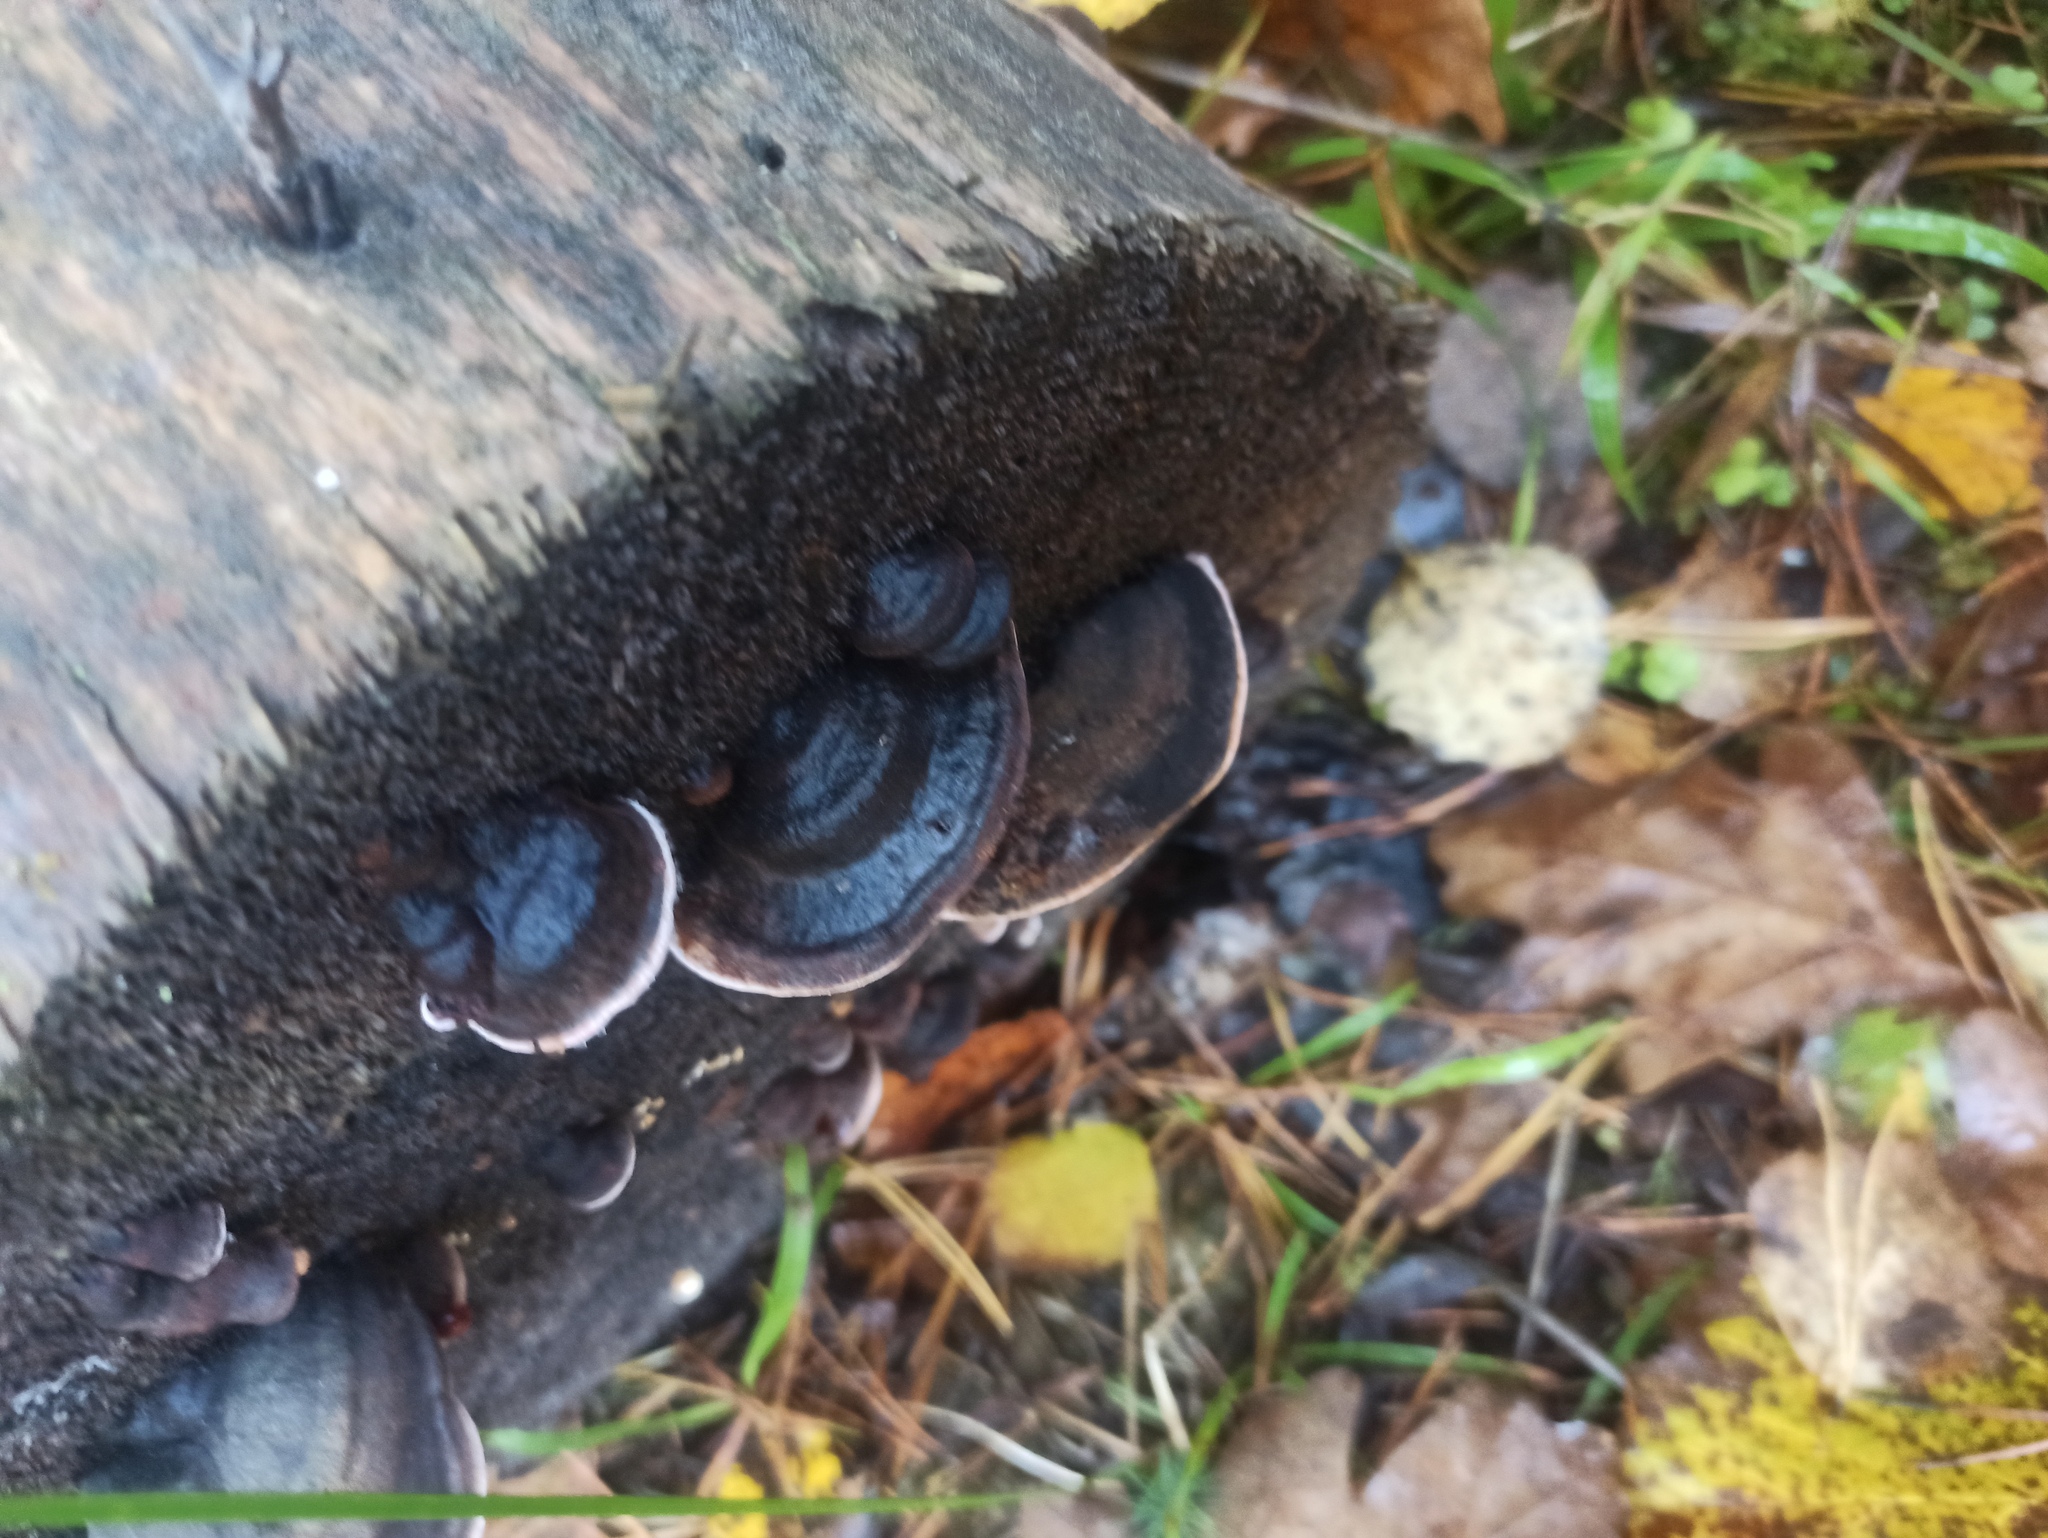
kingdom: Fungi
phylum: Basidiomycota
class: Agaricomycetes
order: Polyporales
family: Fomitopsidaceae
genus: Rhodofomes
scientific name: Rhodofomes roseus
